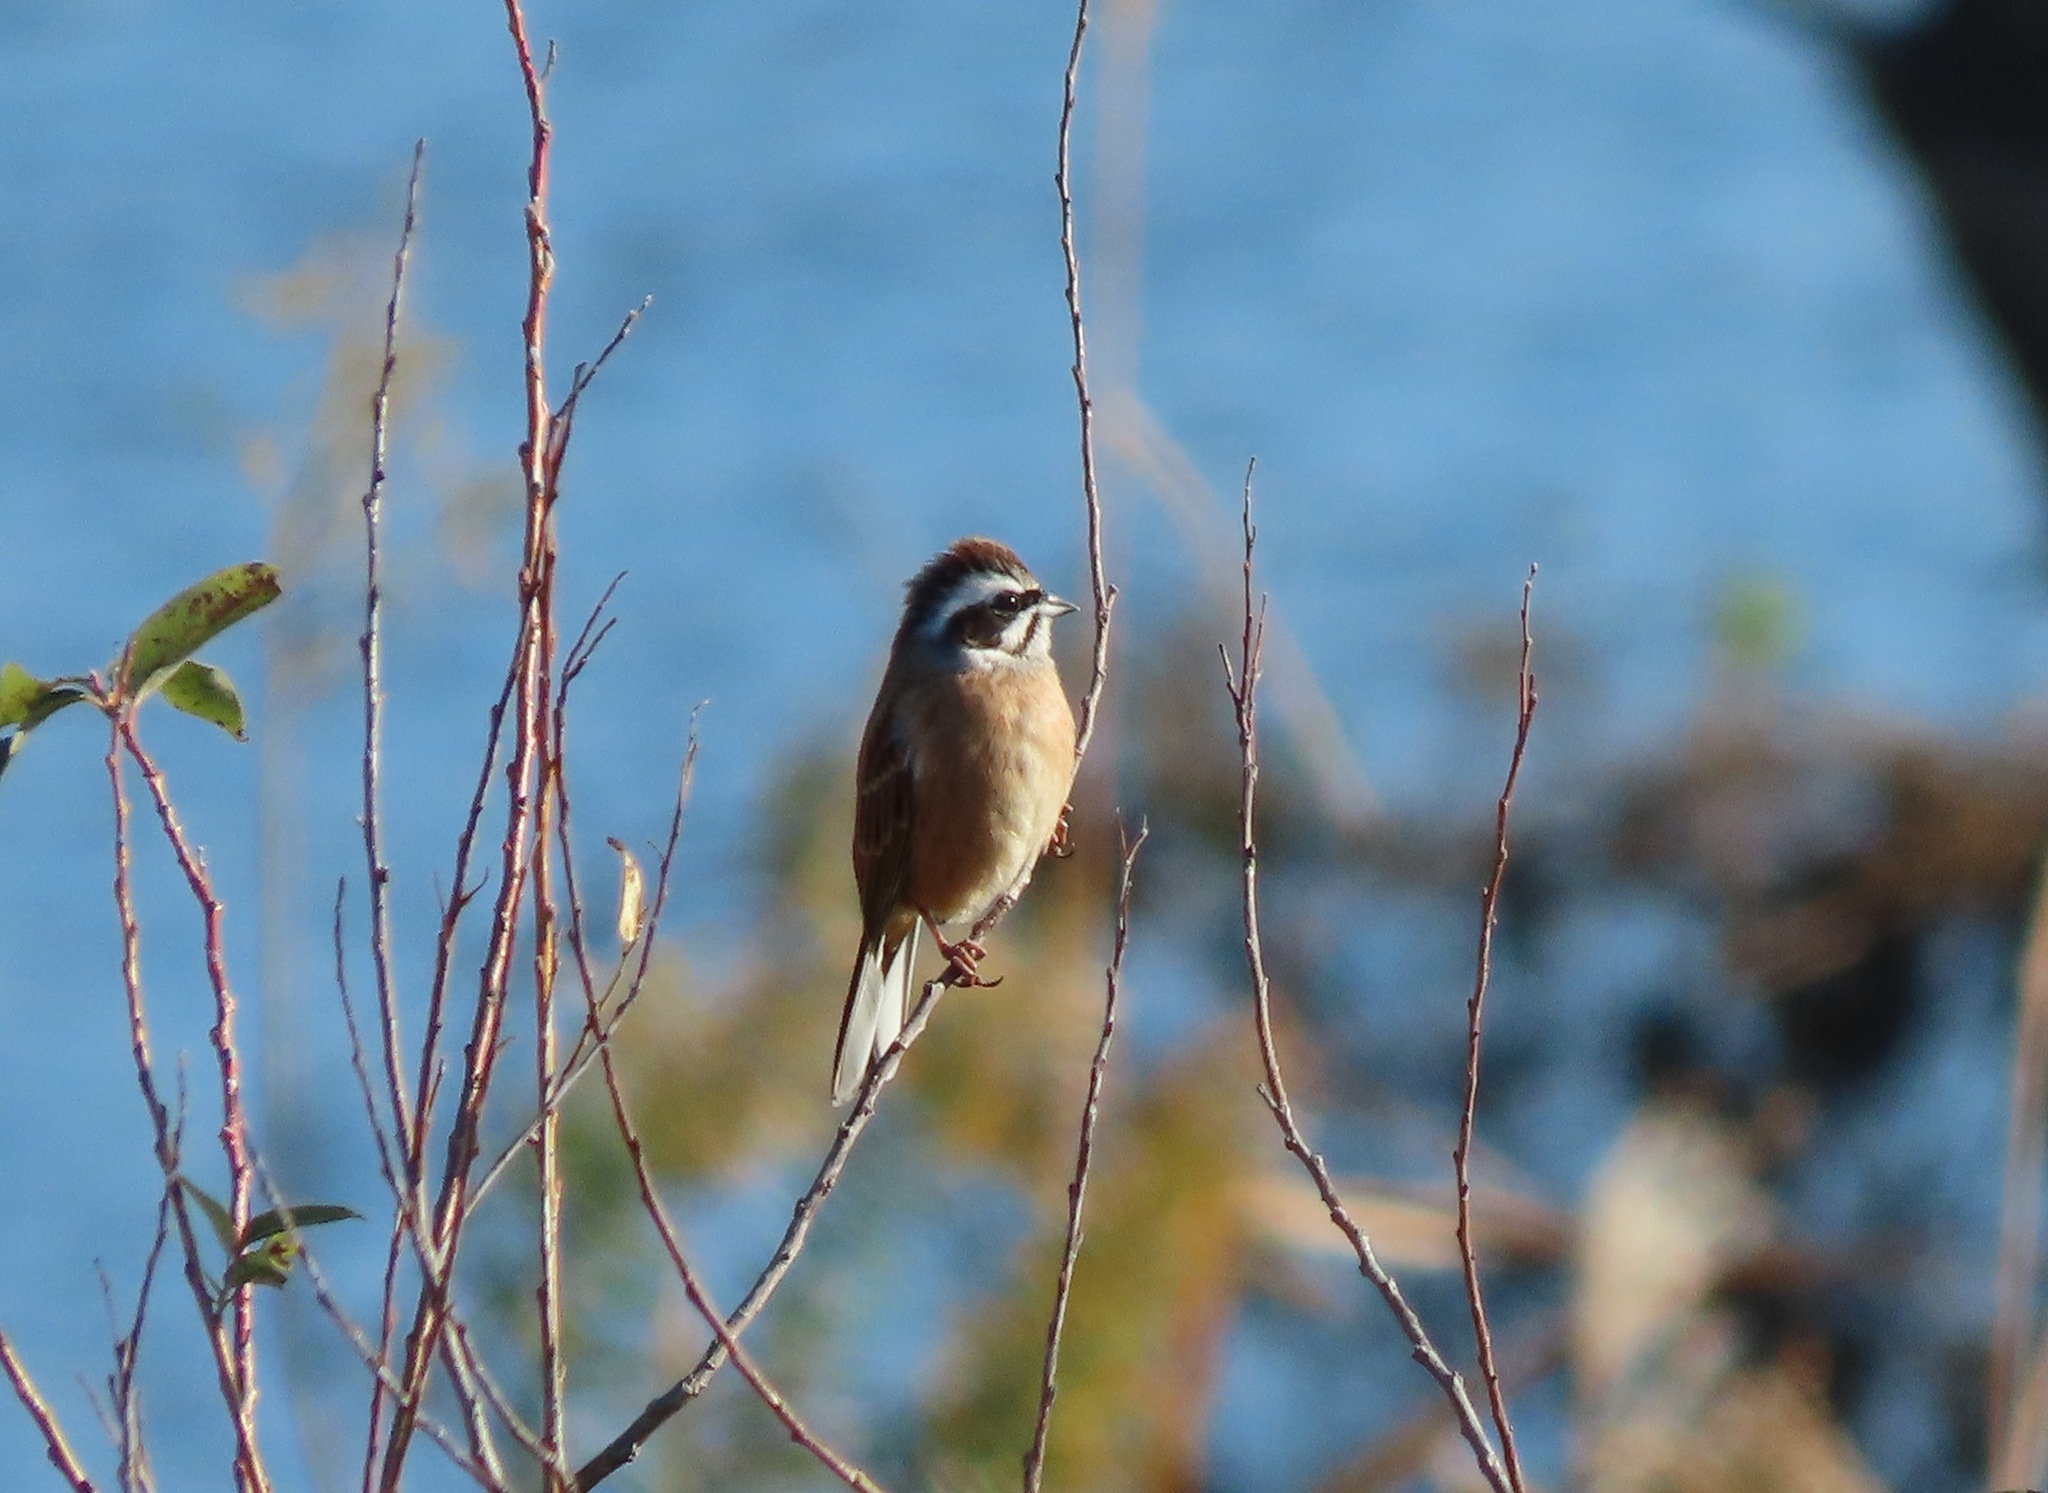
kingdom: Animalia
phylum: Chordata
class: Aves
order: Passeriformes
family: Emberizidae
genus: Emberiza
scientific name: Emberiza cioides
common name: Meadow bunting
